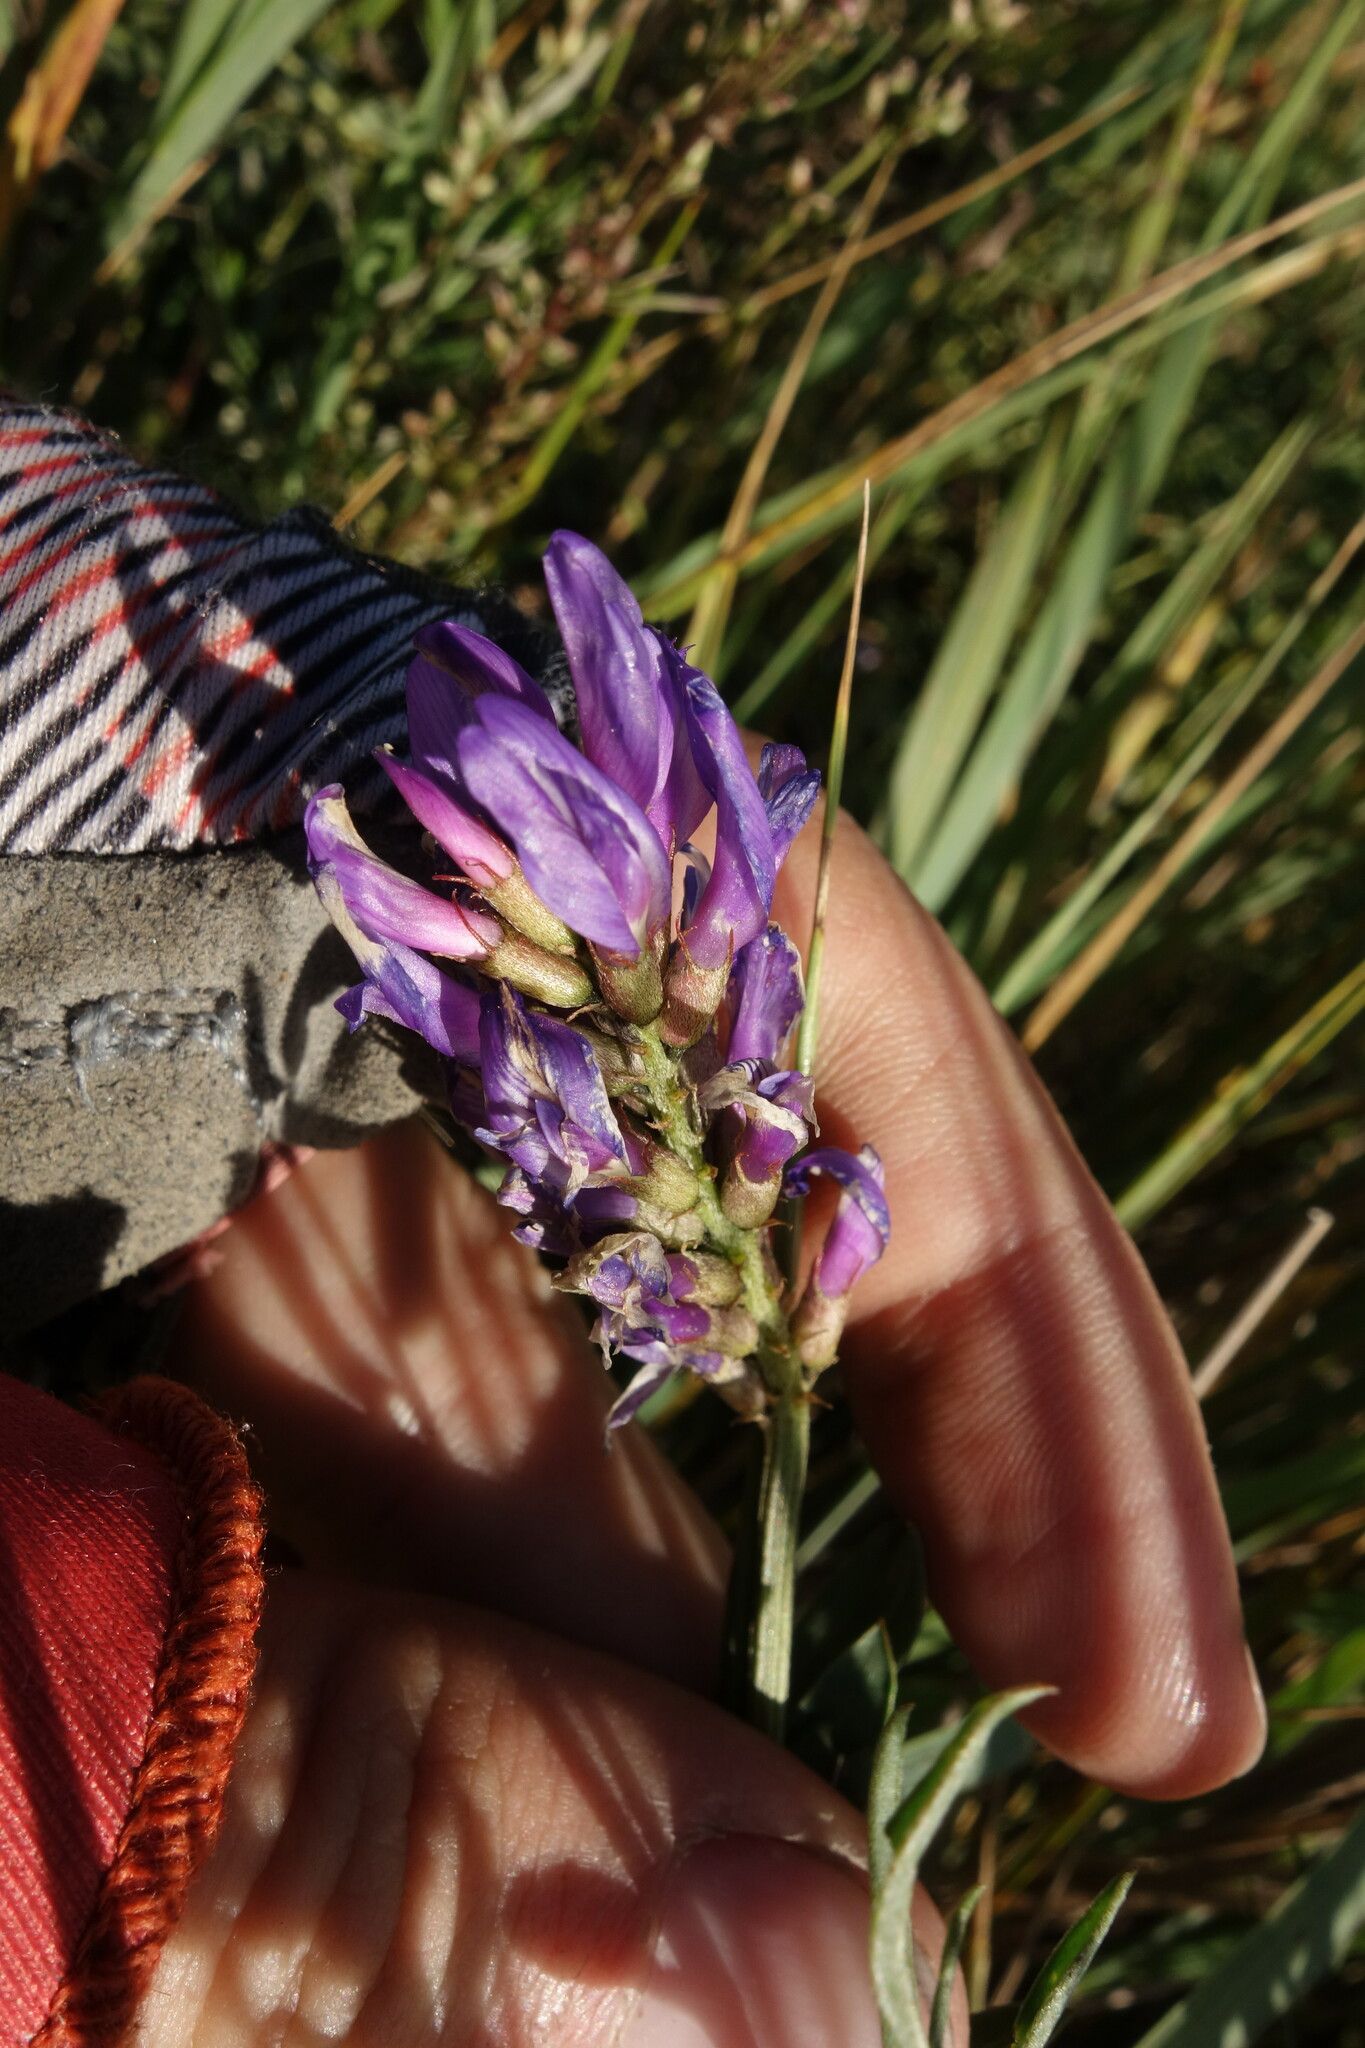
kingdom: Plantae
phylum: Tracheophyta
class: Magnoliopsida
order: Fabales
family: Fabaceae
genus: Astragalus
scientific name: Astragalus laxmannii
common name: Laxmann's milk-vetch
